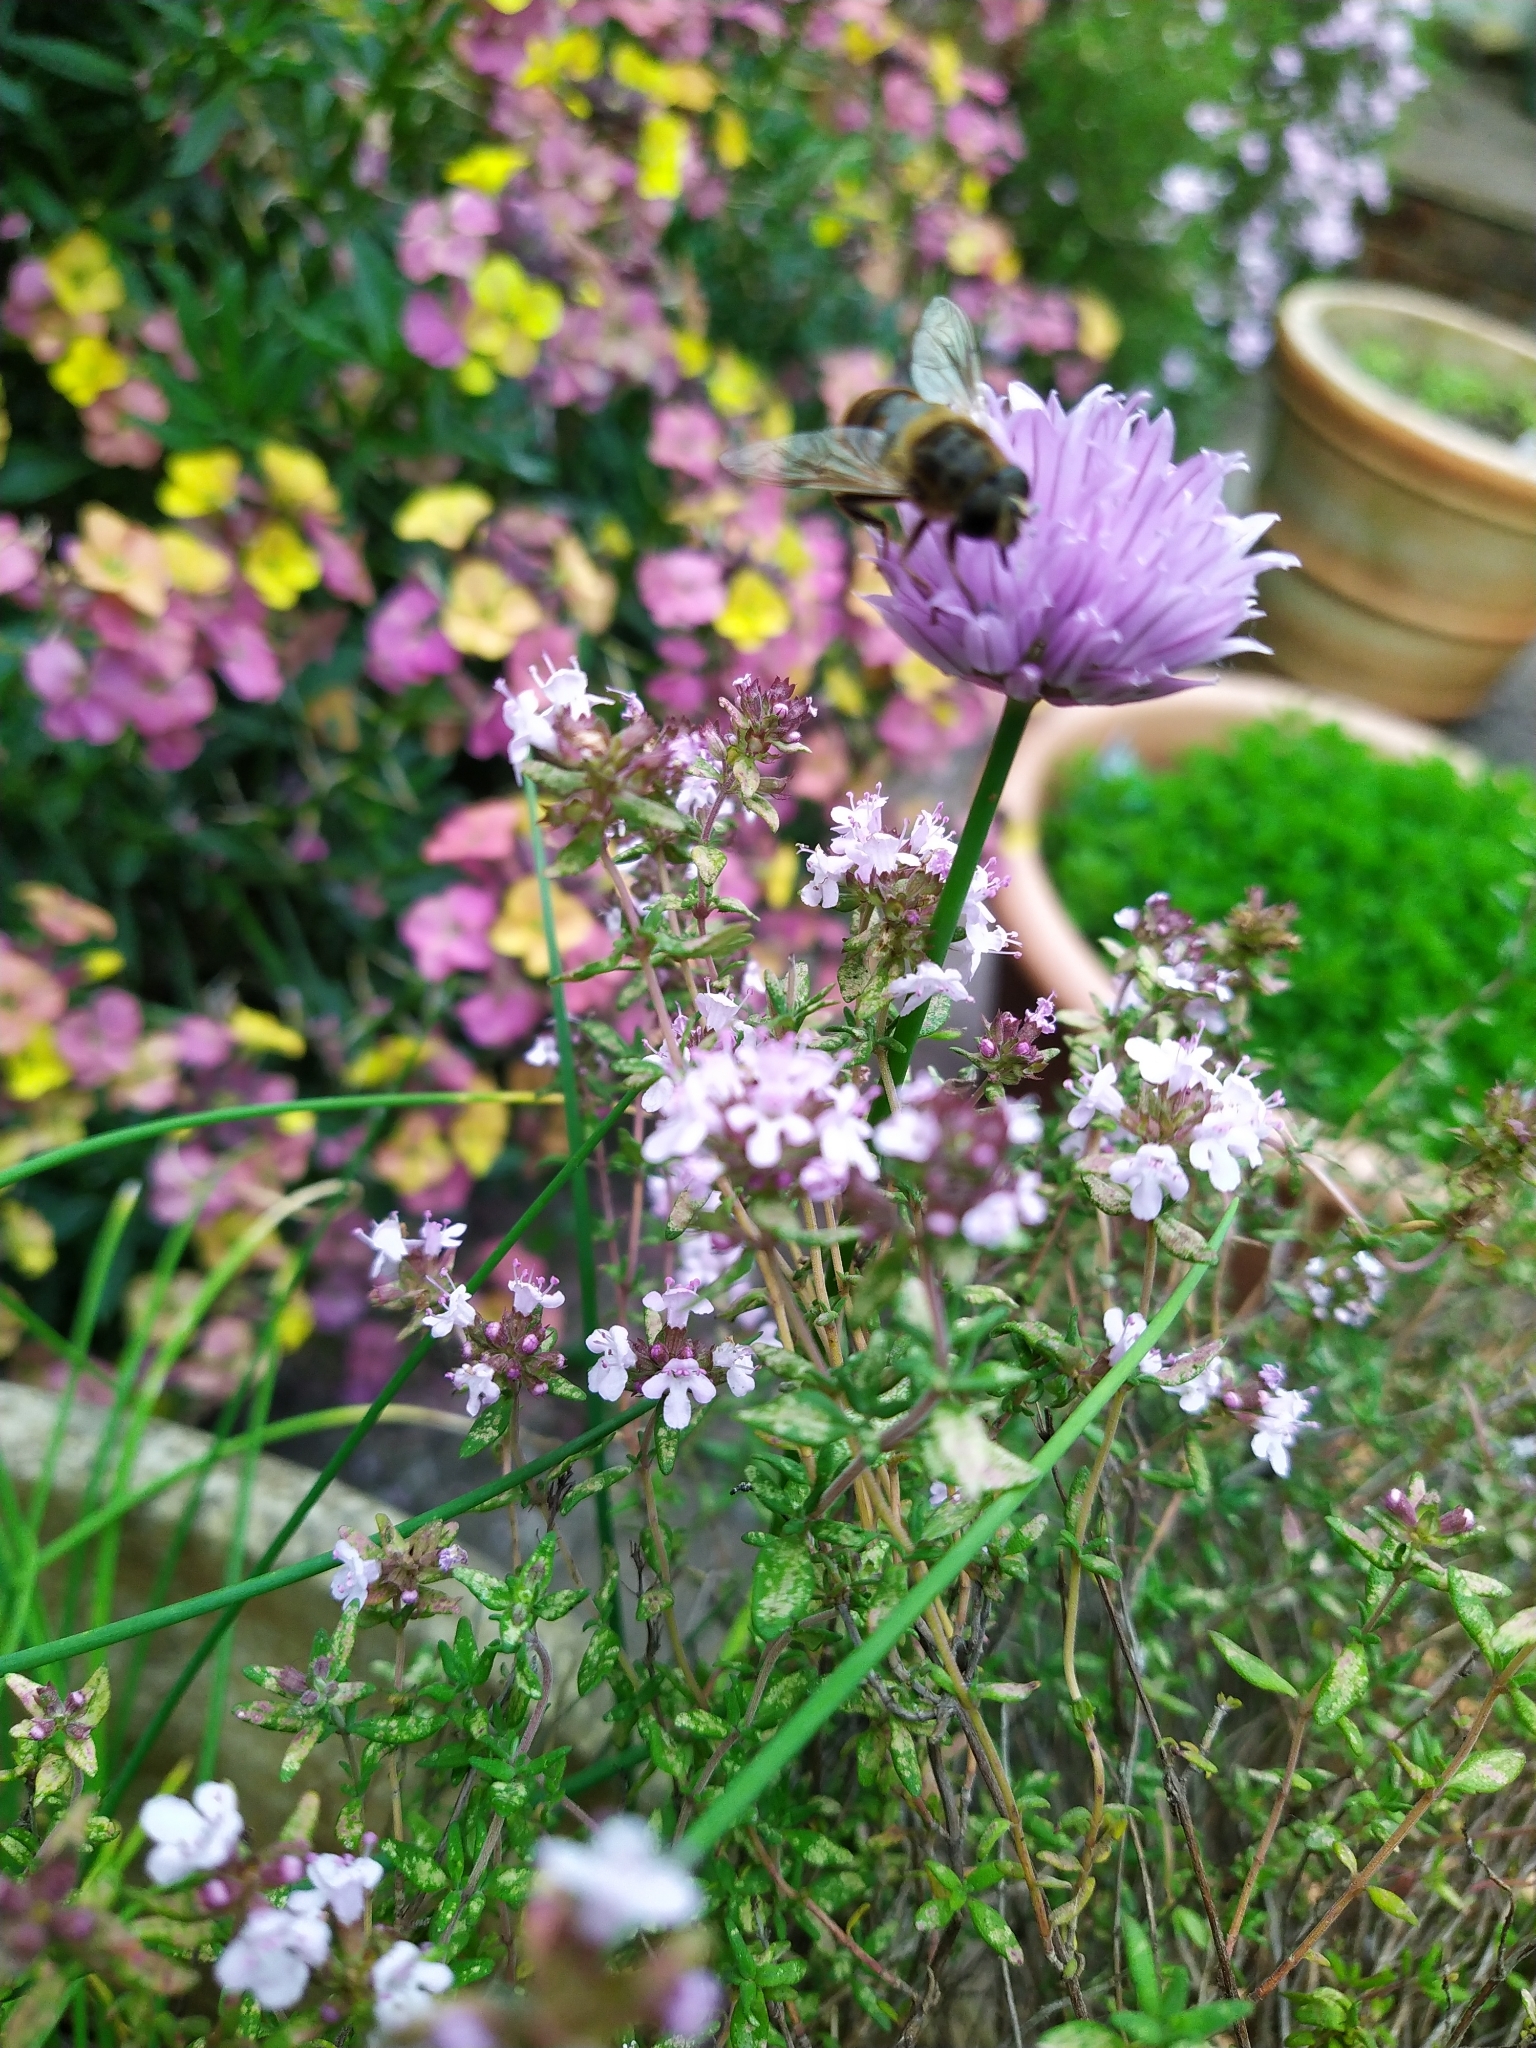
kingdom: Animalia
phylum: Arthropoda
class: Insecta
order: Diptera
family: Syrphidae
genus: Eristalis
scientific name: Eristalis tenax
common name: Drone fly
